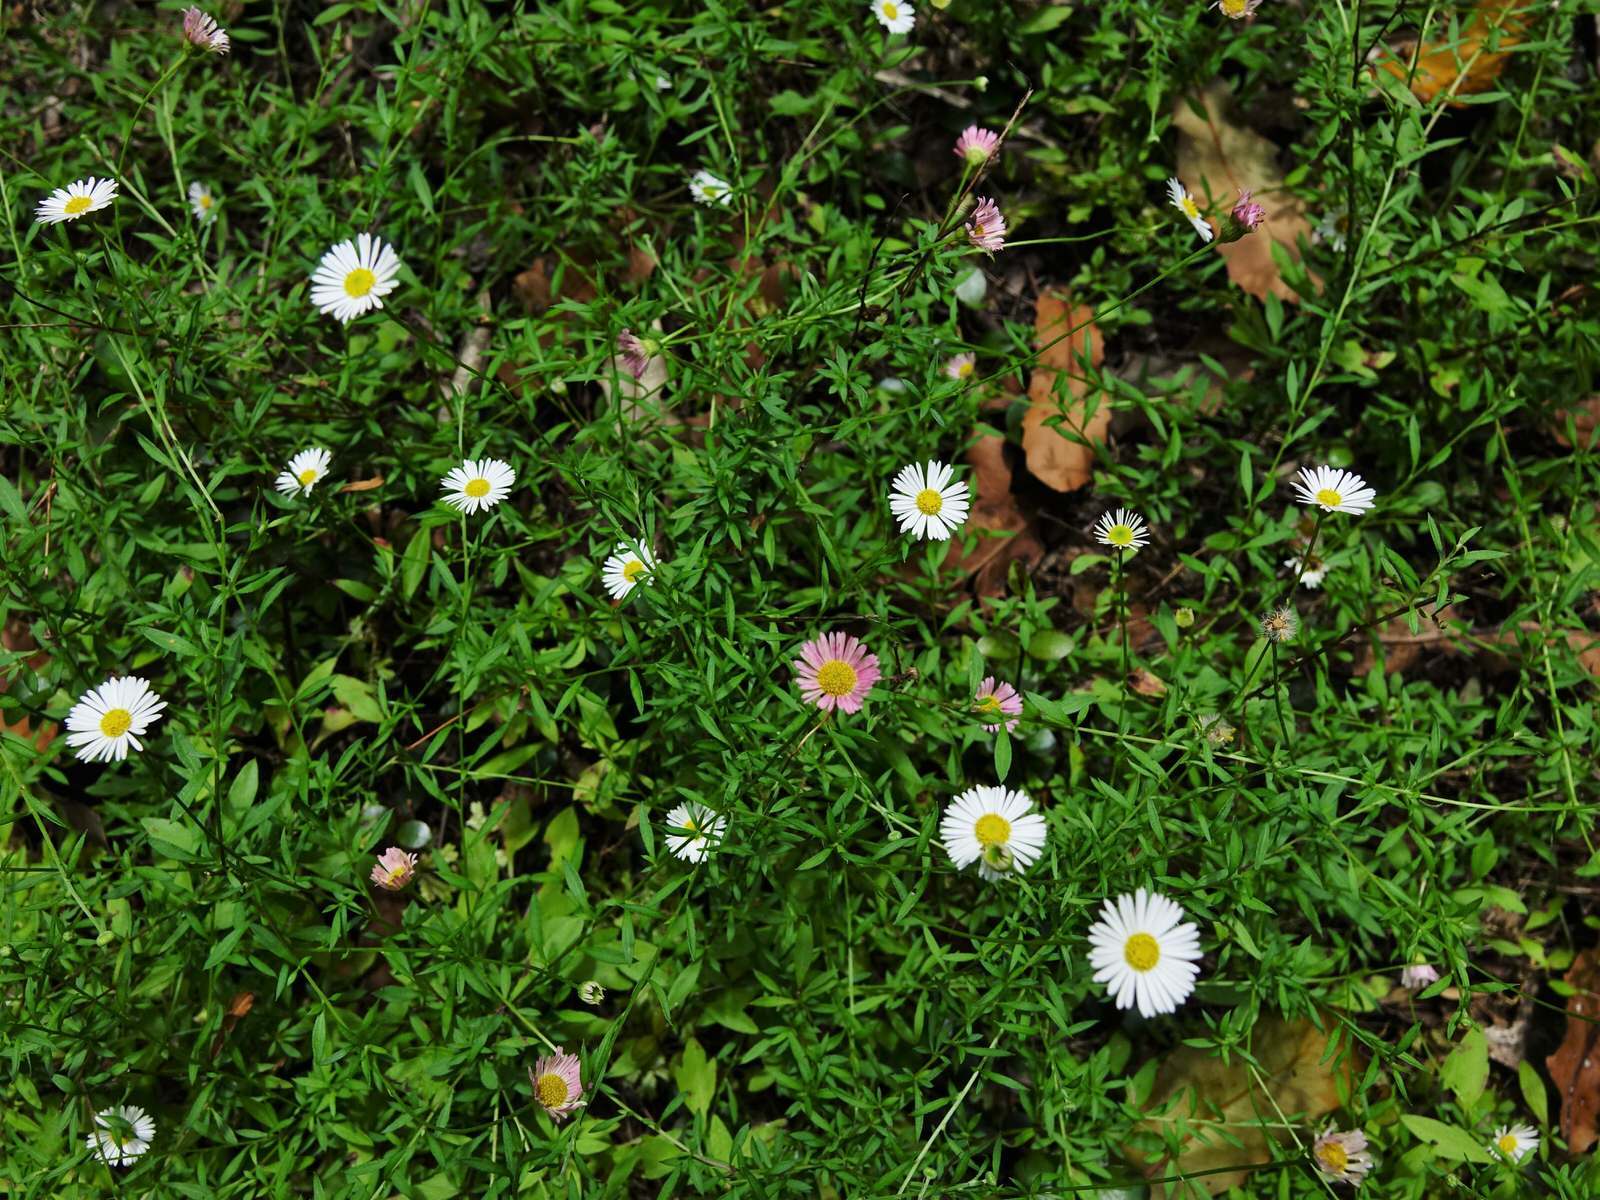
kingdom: Plantae
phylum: Tracheophyta
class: Magnoliopsida
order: Asterales
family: Asteraceae
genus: Erigeron
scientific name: Erigeron karvinskianus
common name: Mexican fleabane
